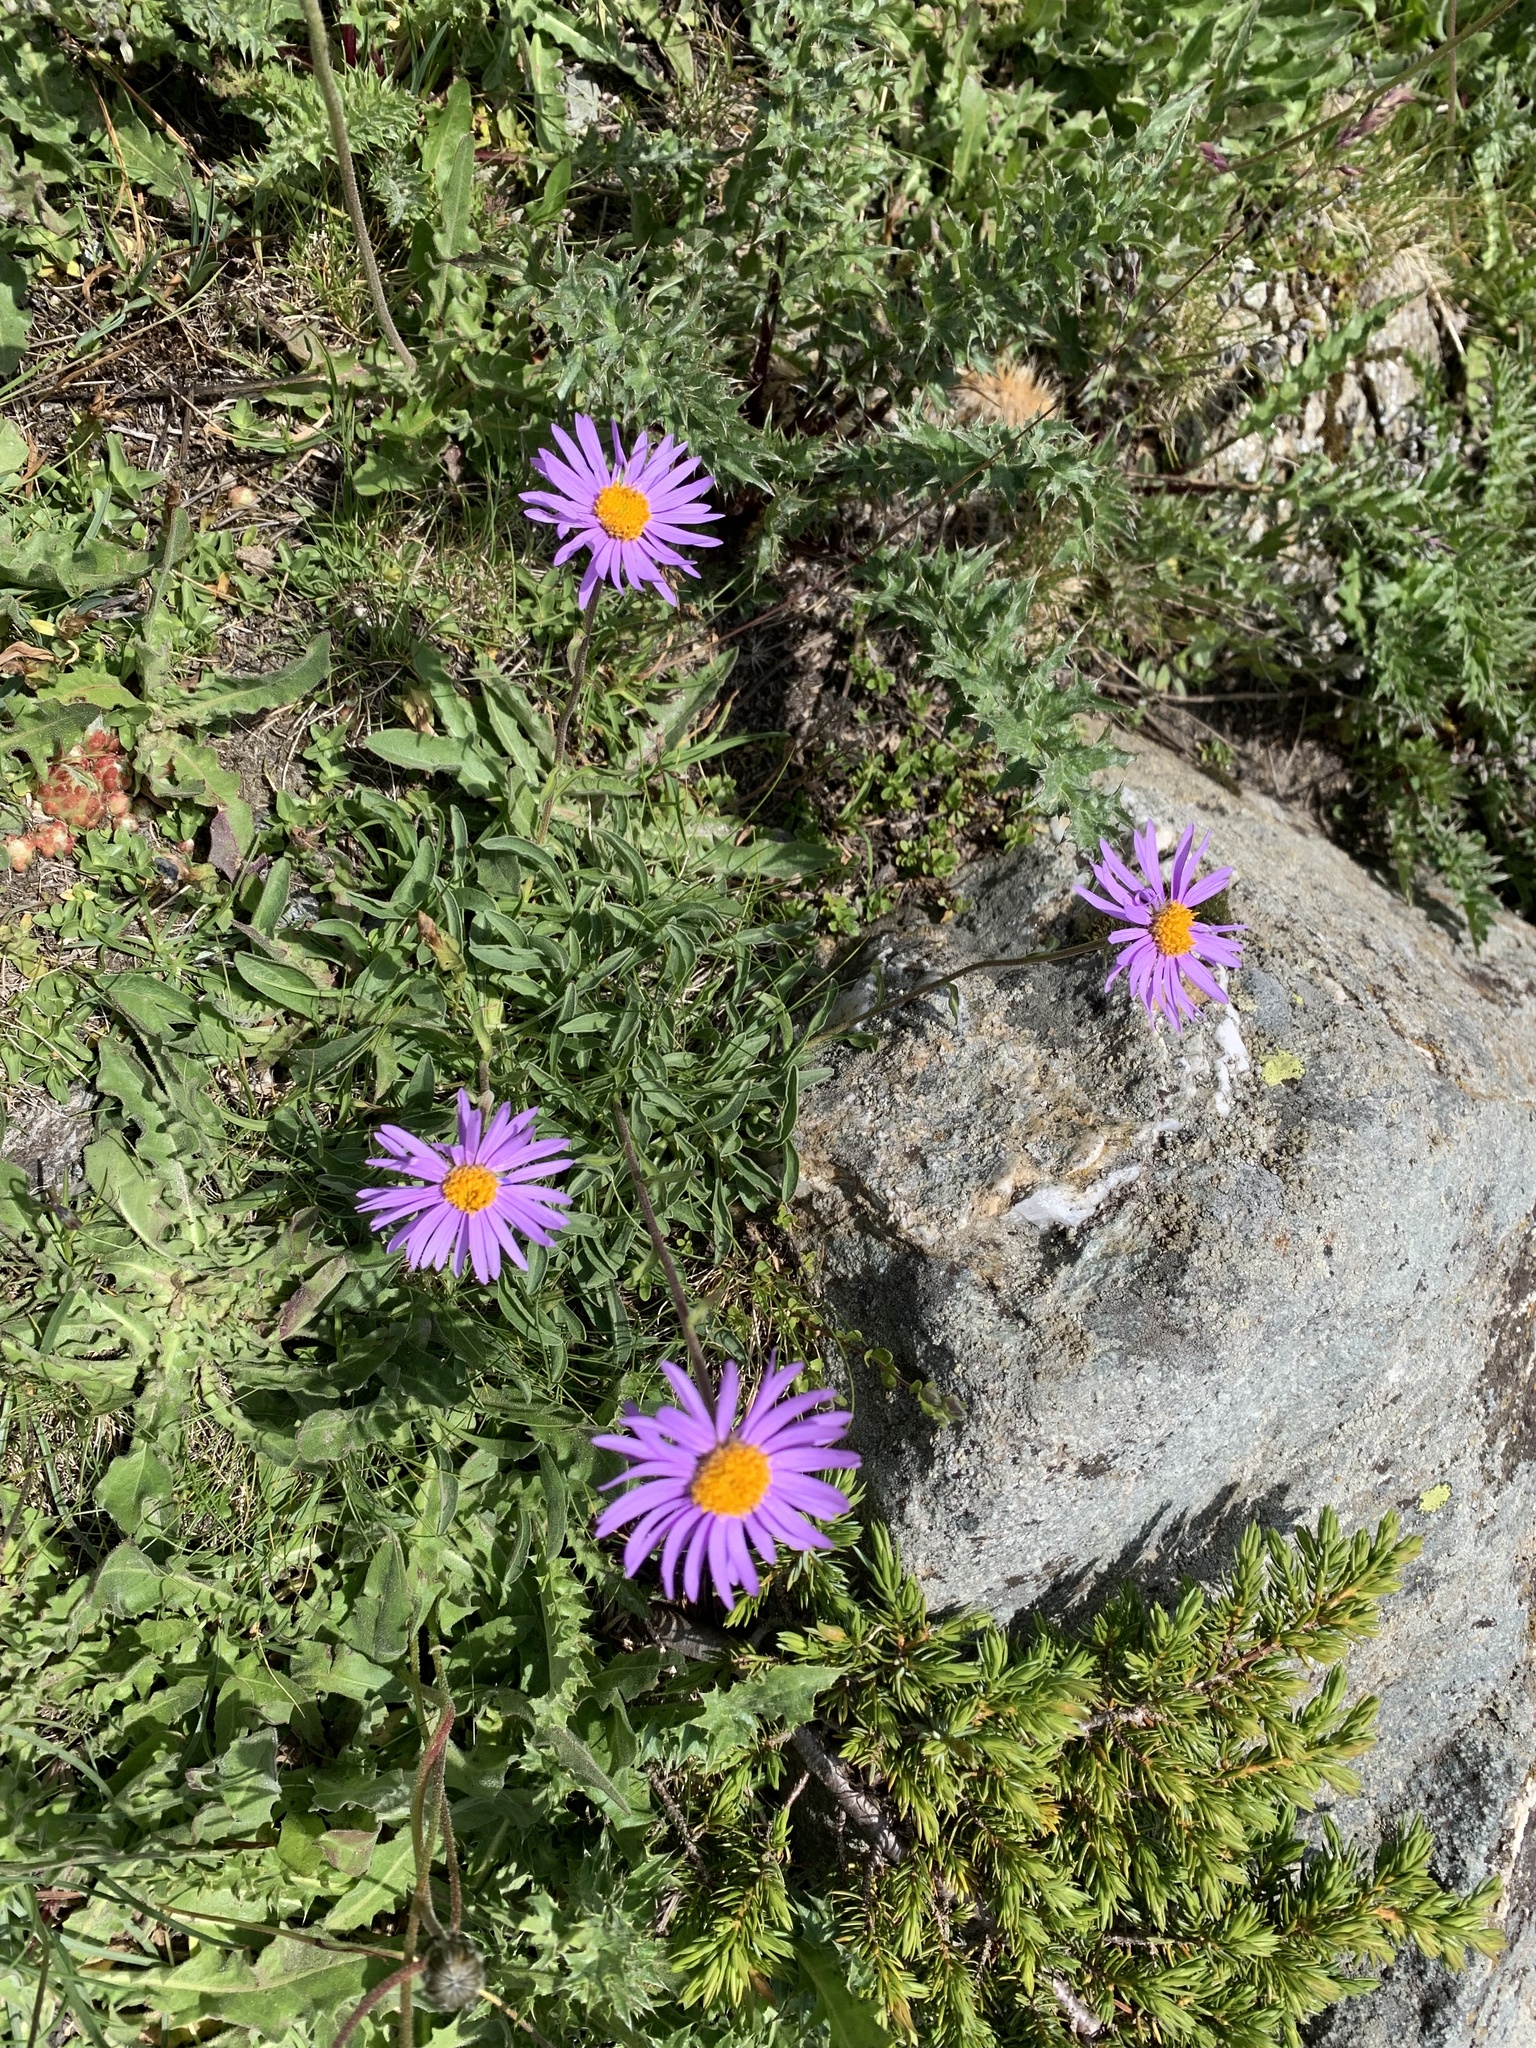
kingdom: Plantae
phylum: Tracheophyta
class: Magnoliopsida
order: Asterales
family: Asteraceae
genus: Aster
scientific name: Aster alpinus
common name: Alpine aster
